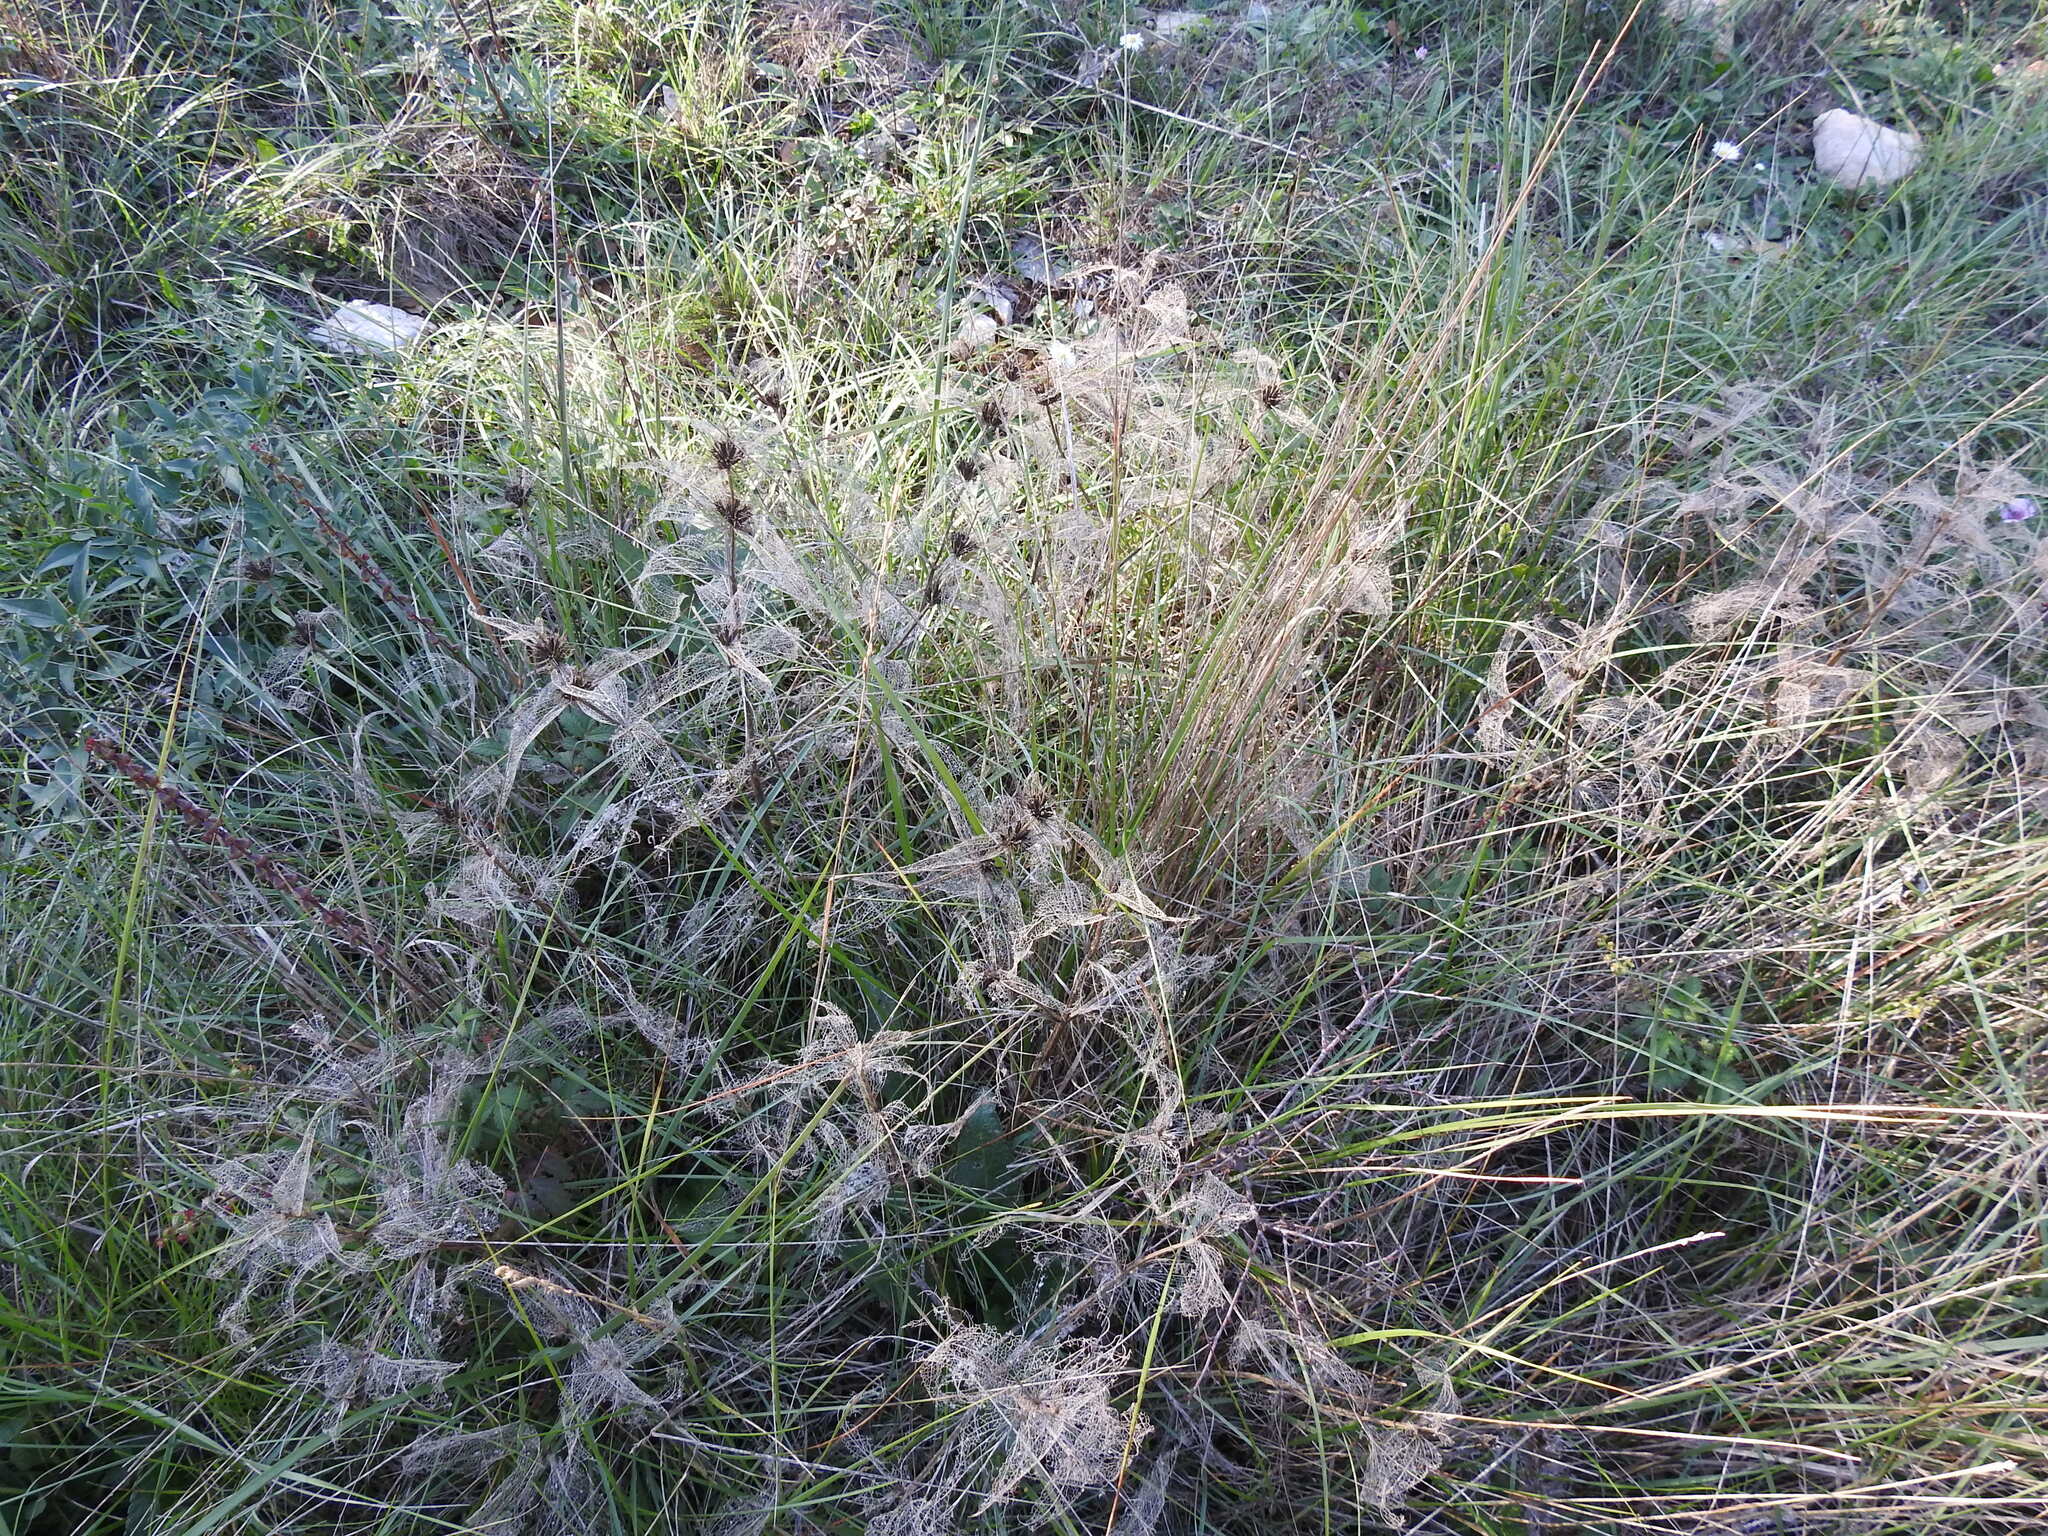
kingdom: Plantae
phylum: Tracheophyta
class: Magnoliopsida
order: Lamiales
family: Lamiaceae
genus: Phlomis
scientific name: Phlomis herba-venti
